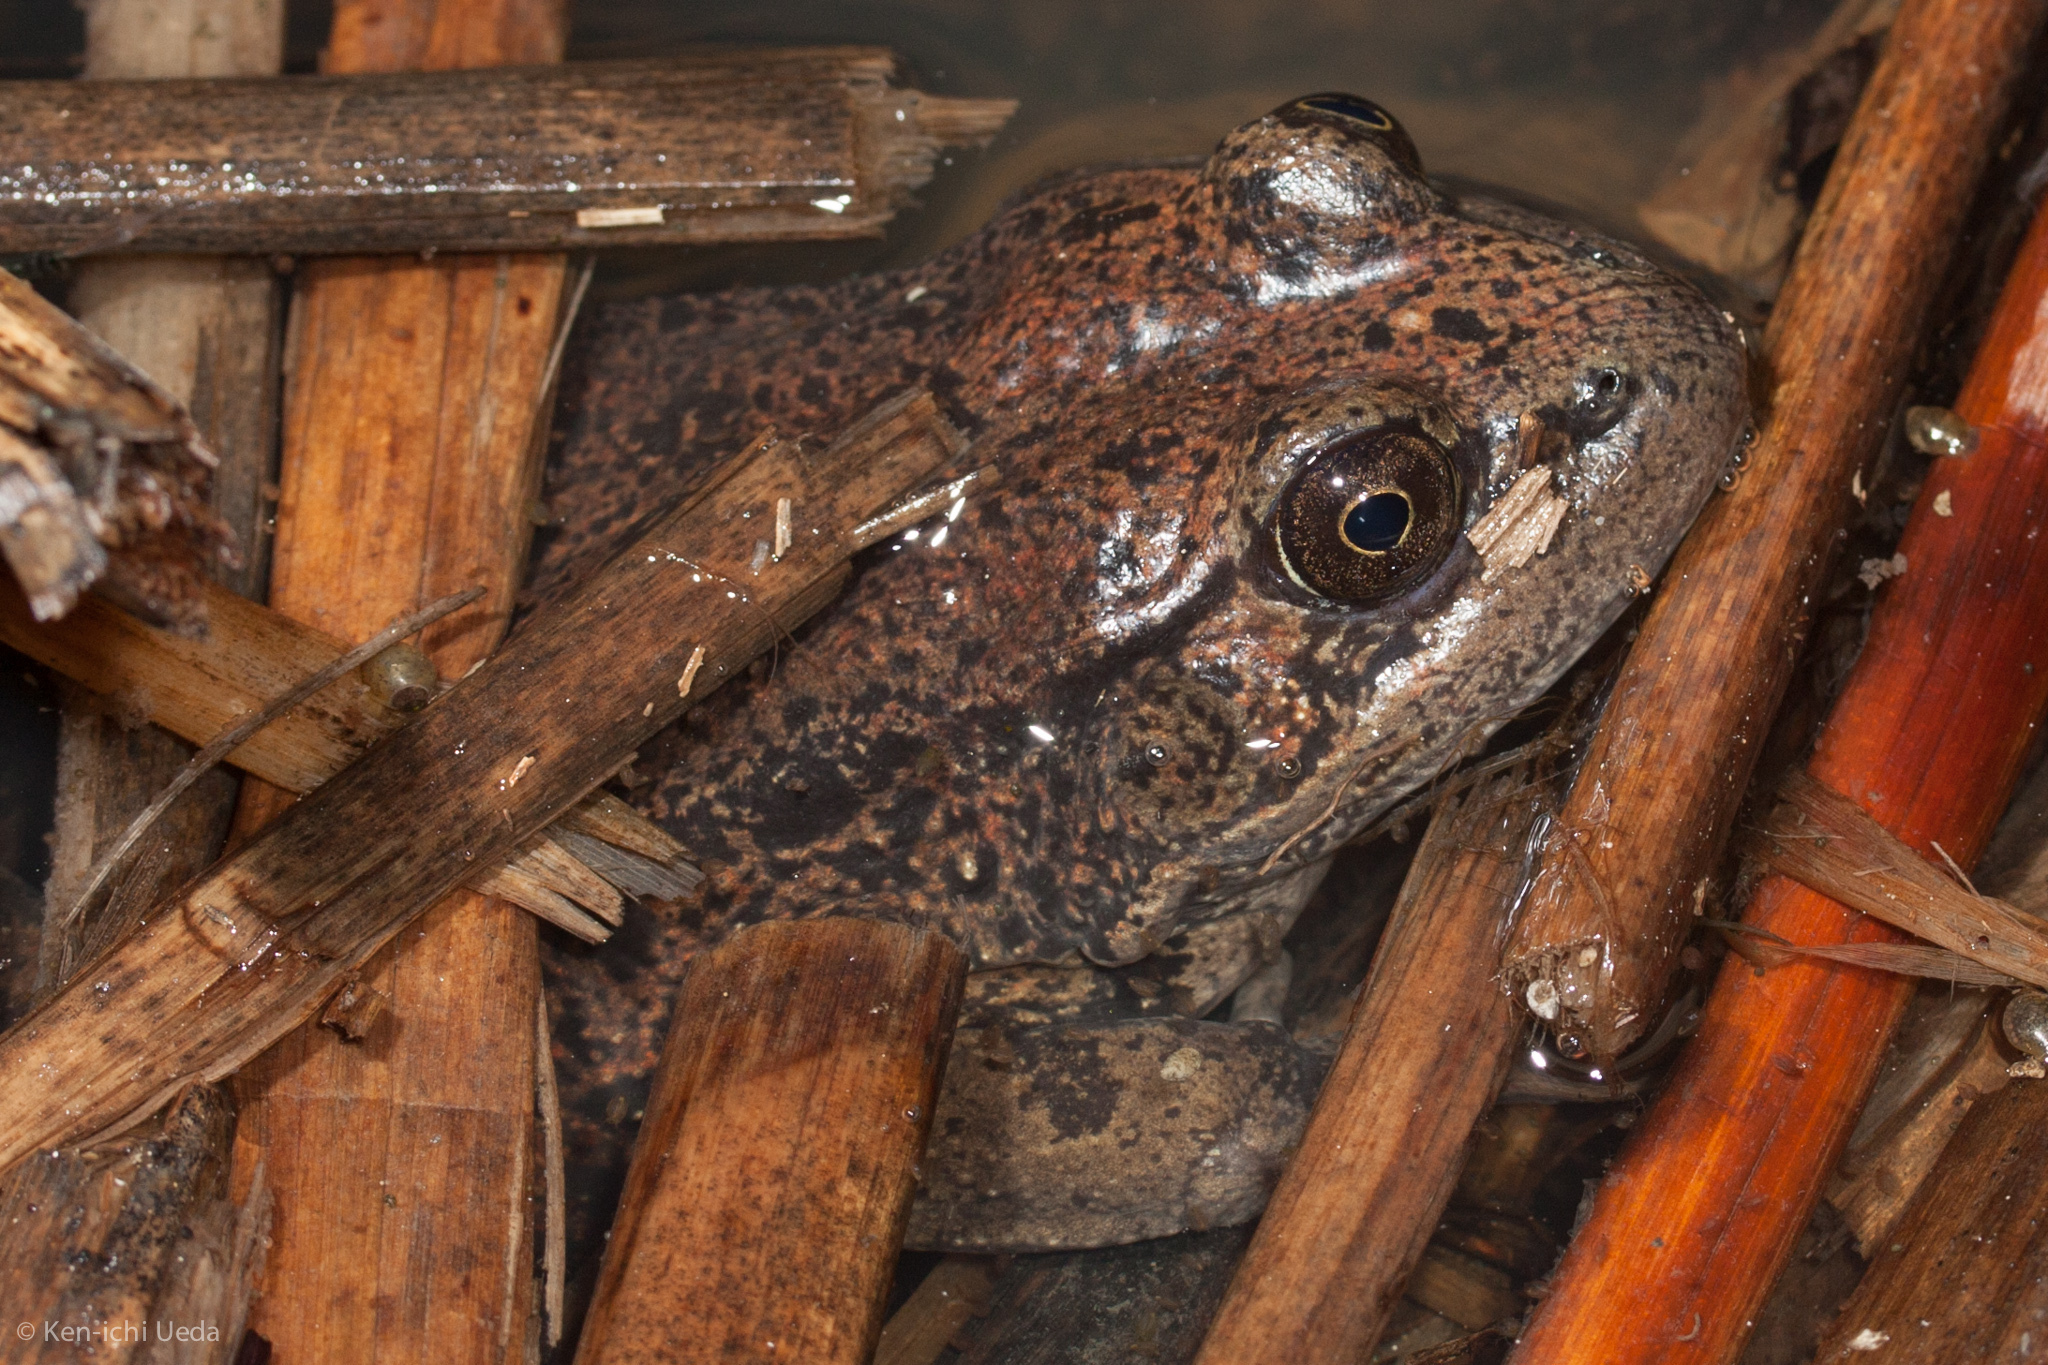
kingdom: Animalia
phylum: Chordata
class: Amphibia
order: Anura
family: Ranidae
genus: Rana
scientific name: Rana draytonii
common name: California red-legged frog
